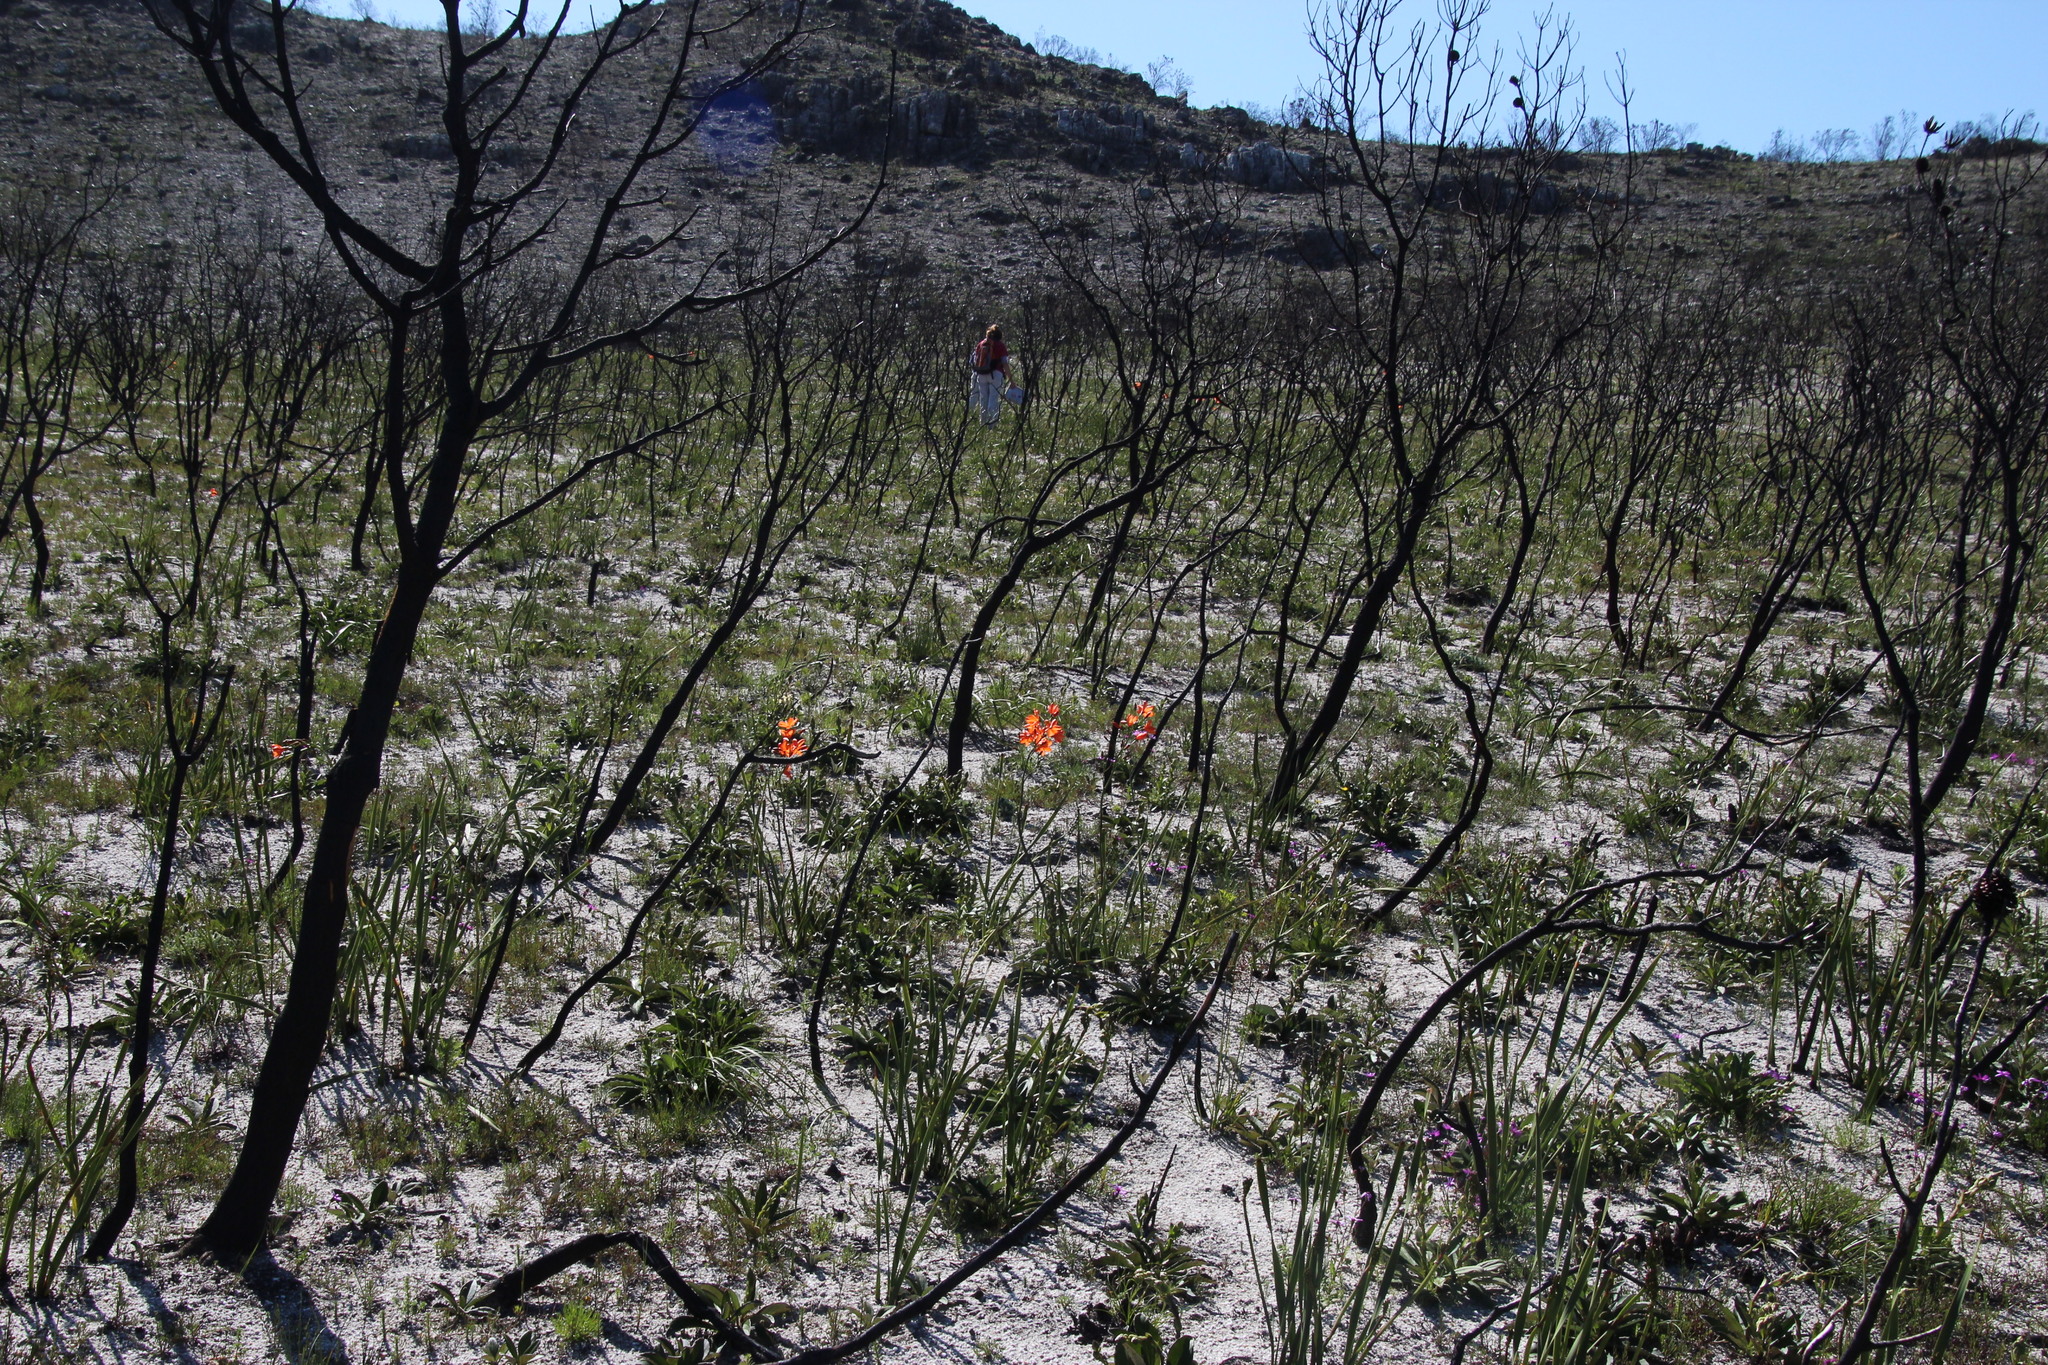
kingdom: Plantae
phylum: Tracheophyta
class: Liliopsida
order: Asparagales
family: Iridaceae
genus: Pillansia
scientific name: Pillansia templemannii
